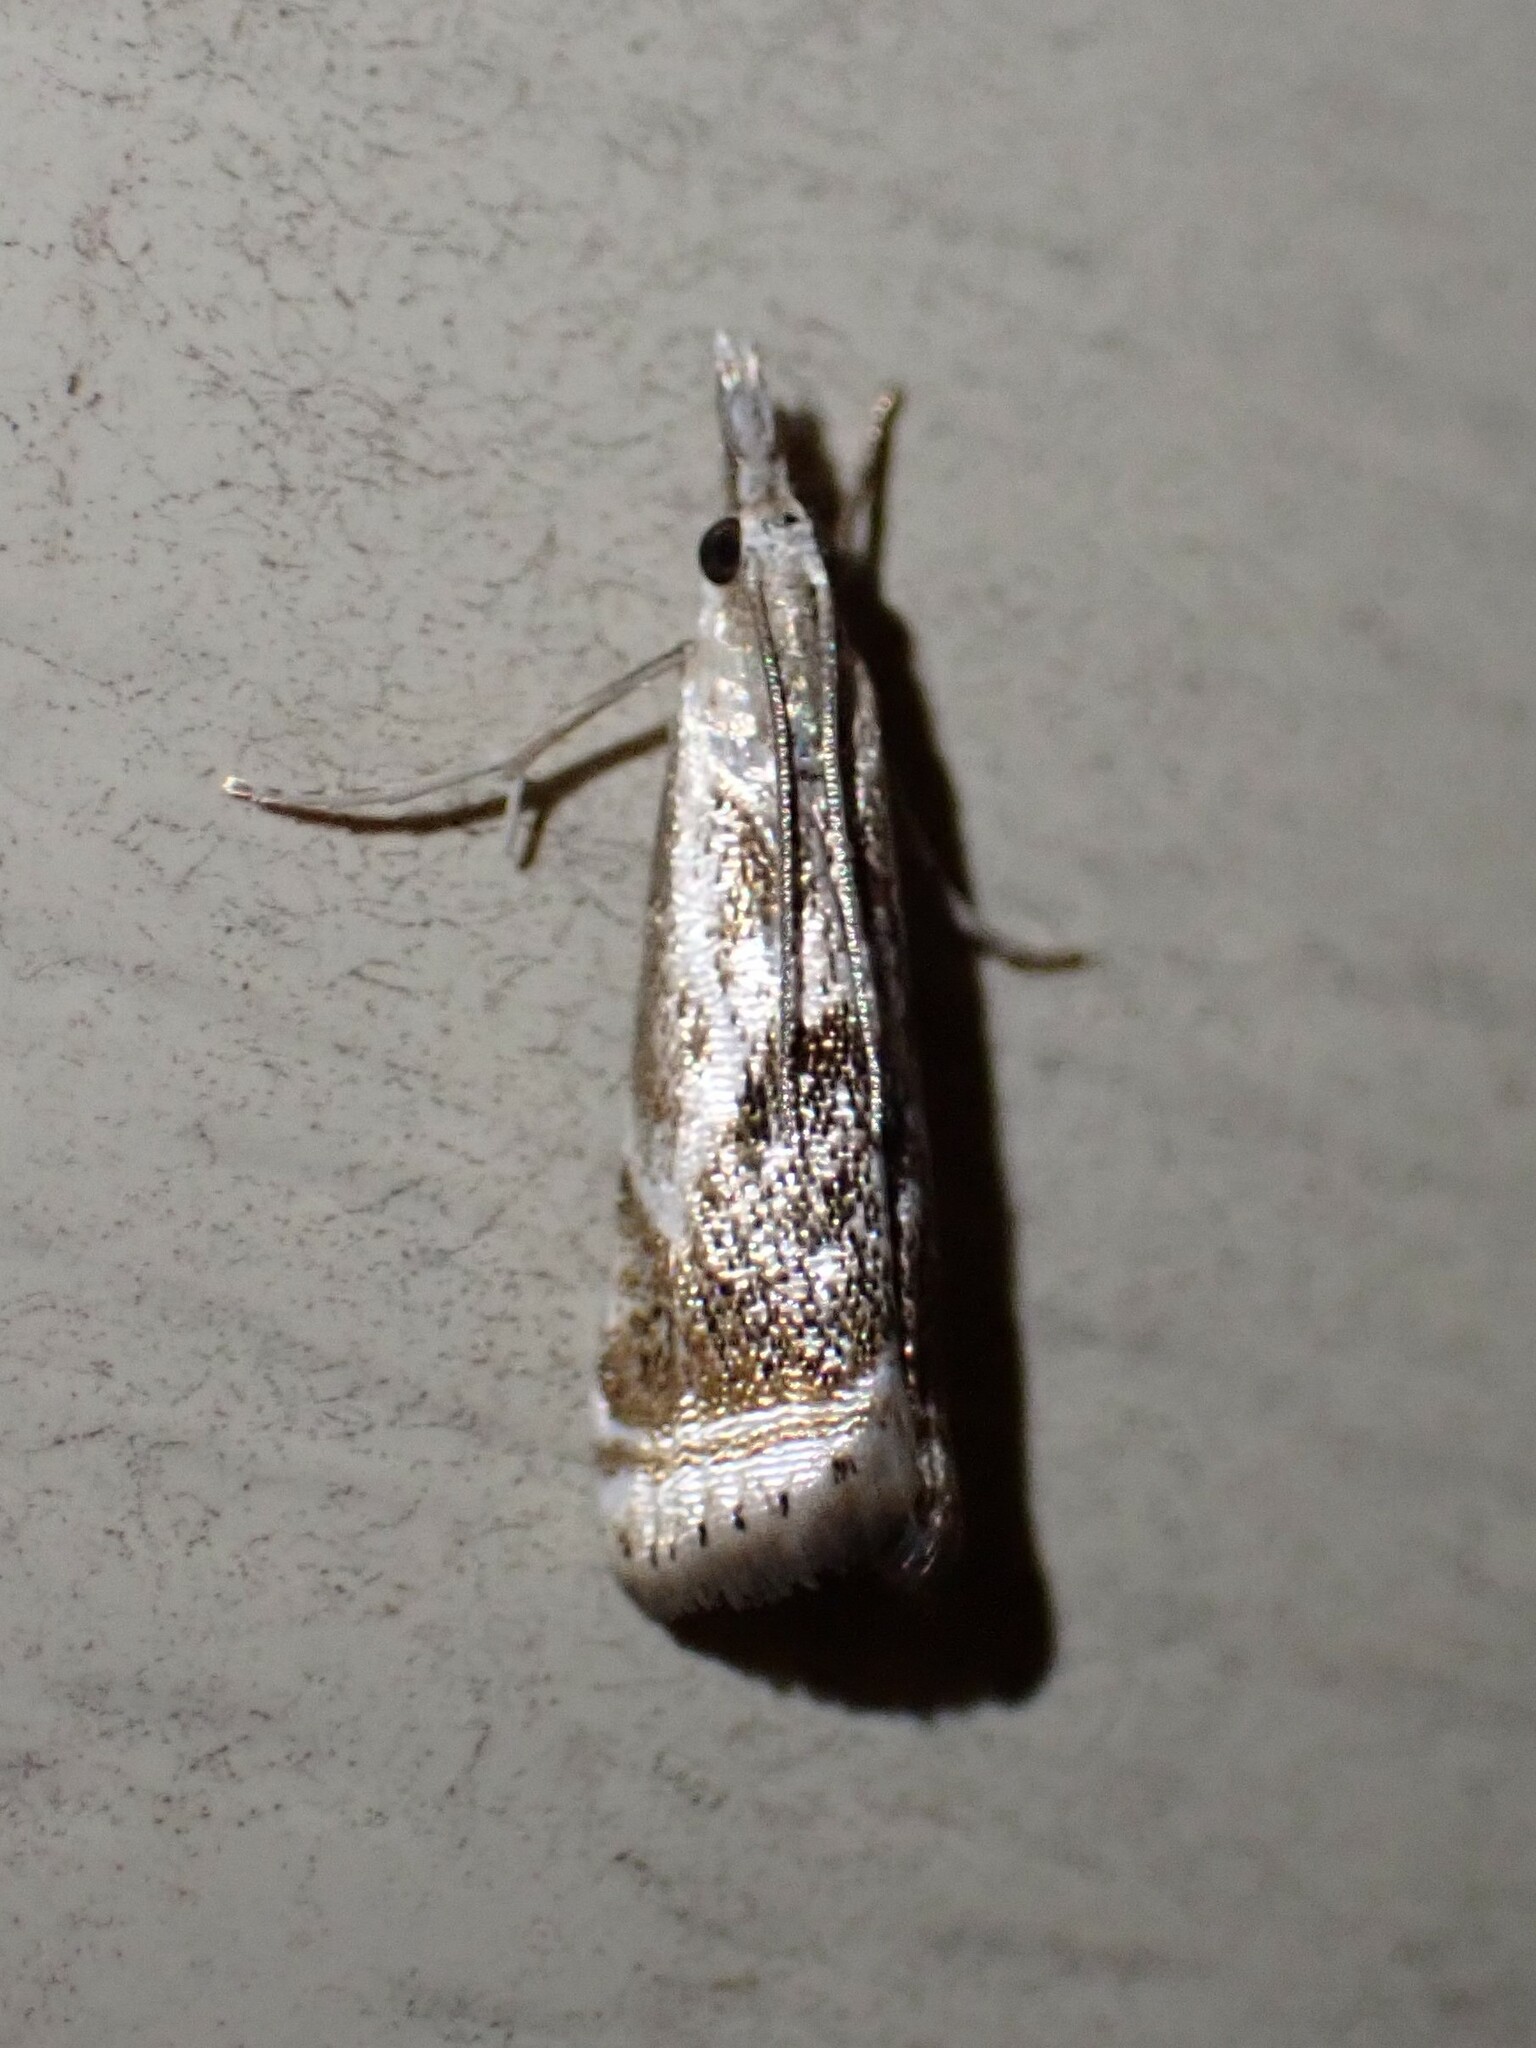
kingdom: Animalia
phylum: Arthropoda
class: Insecta
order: Lepidoptera
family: Crambidae
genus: Microcrambus
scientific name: Microcrambus elegans
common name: Elegant grass-veneer
